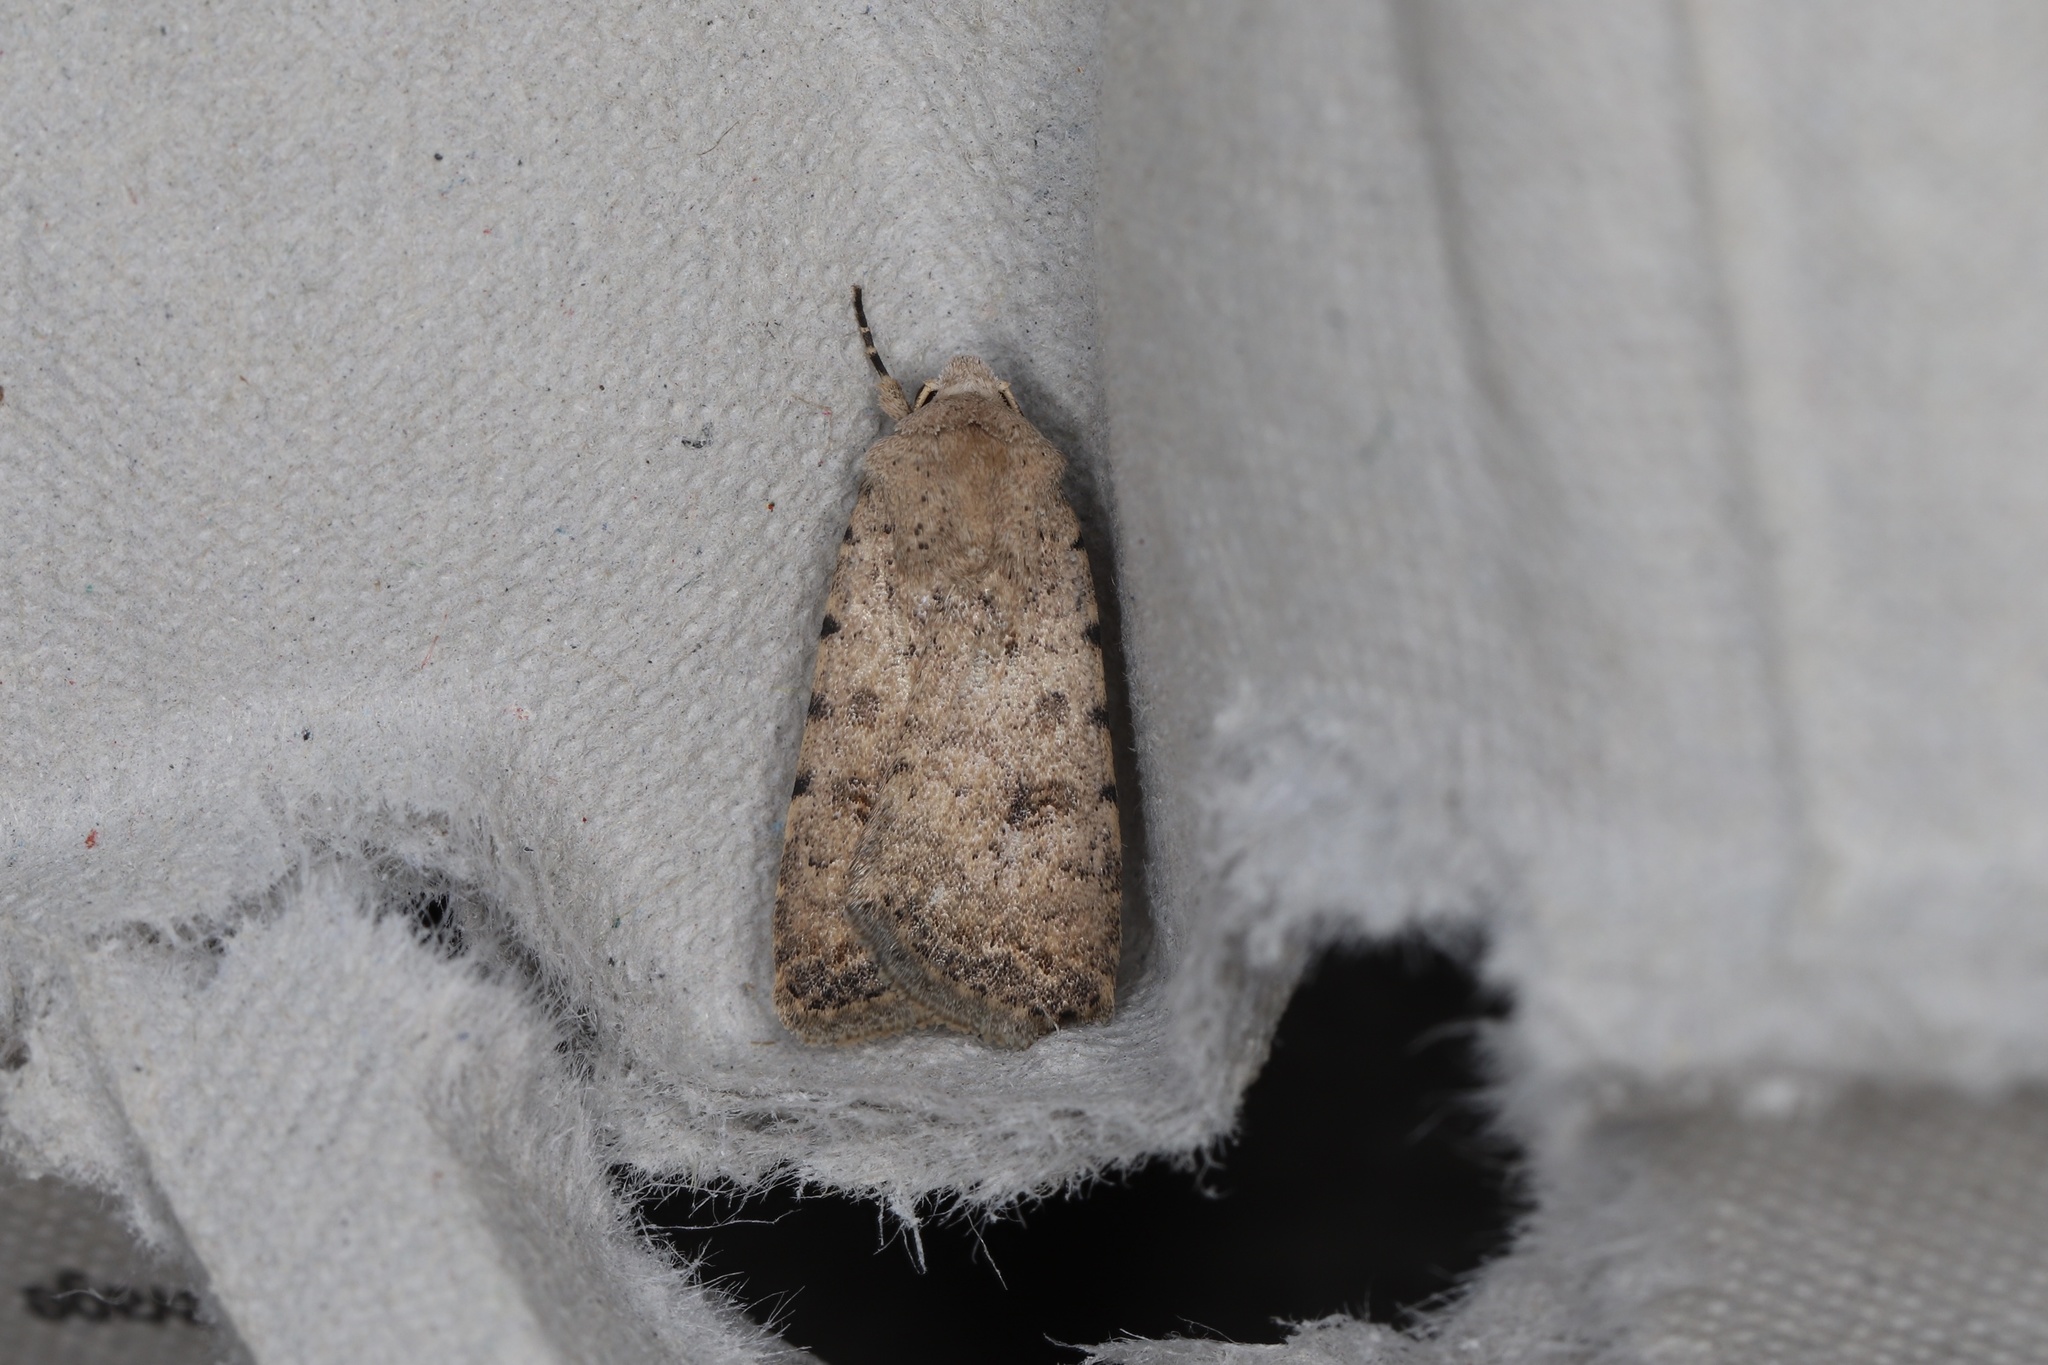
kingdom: Animalia
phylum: Arthropoda
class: Insecta
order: Lepidoptera
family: Noctuidae
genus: Caradrina
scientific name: Caradrina clavipalpis
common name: Pale mottled willow
